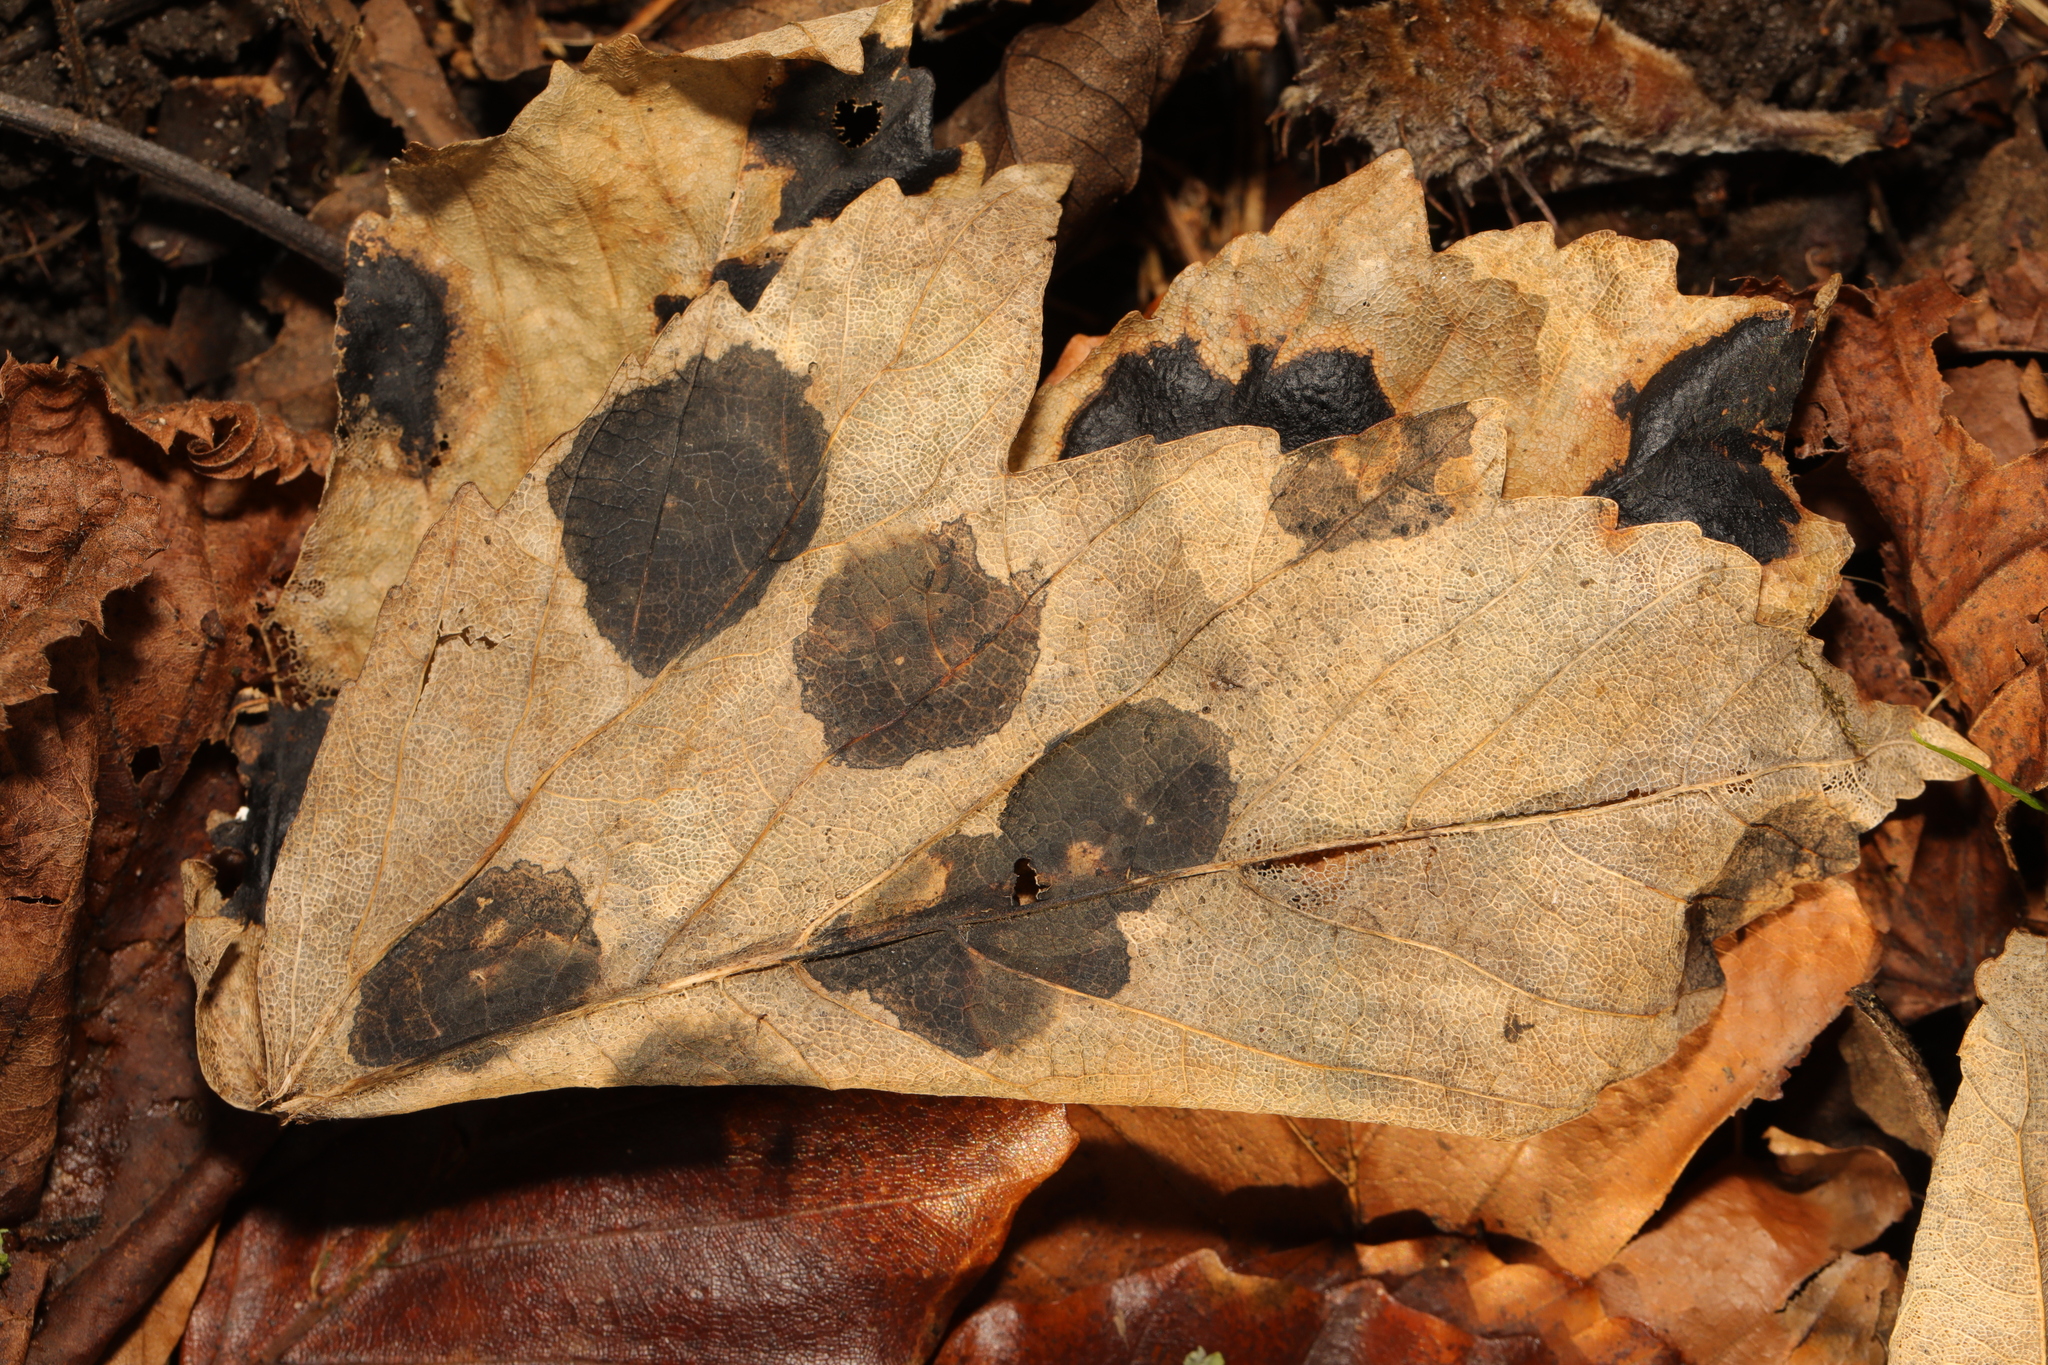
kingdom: Fungi
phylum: Ascomycota
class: Leotiomycetes
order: Rhytismatales
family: Rhytismataceae
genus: Rhytisma
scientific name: Rhytisma acerinum
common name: European tar spot
